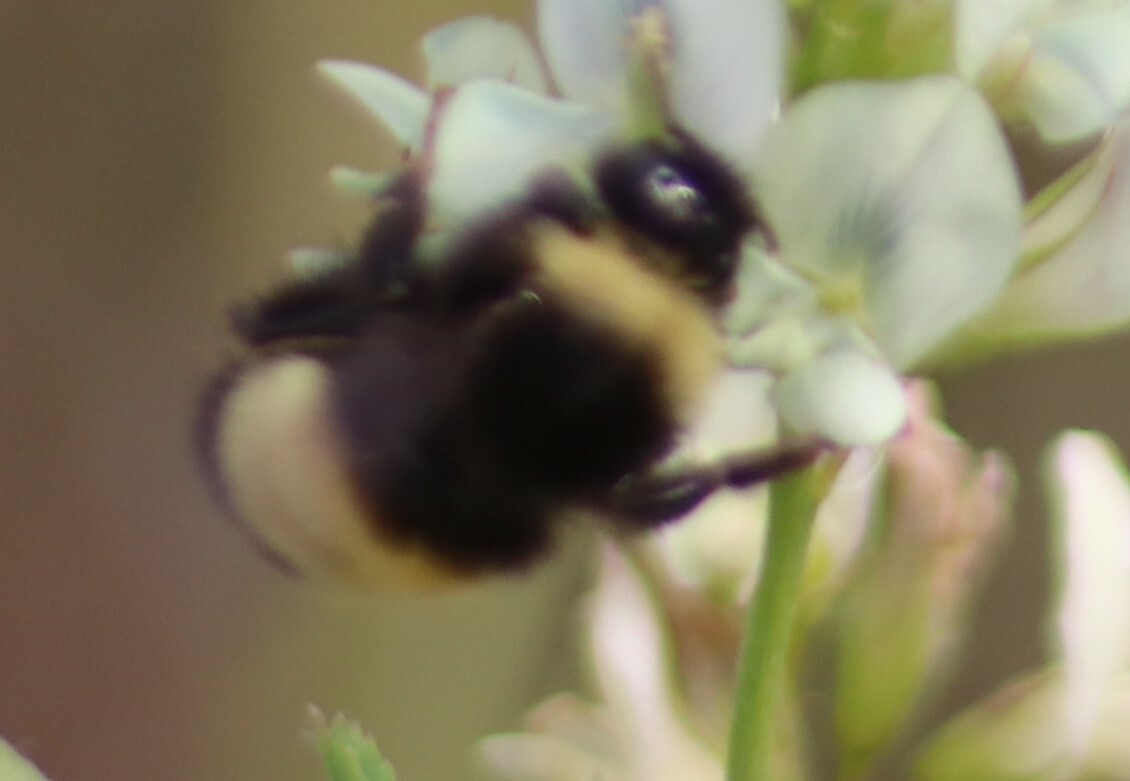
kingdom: Animalia
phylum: Arthropoda
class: Insecta
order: Hymenoptera
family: Apidae
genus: Bombus
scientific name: Bombus terricola
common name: Yellow-banded bumble bee
